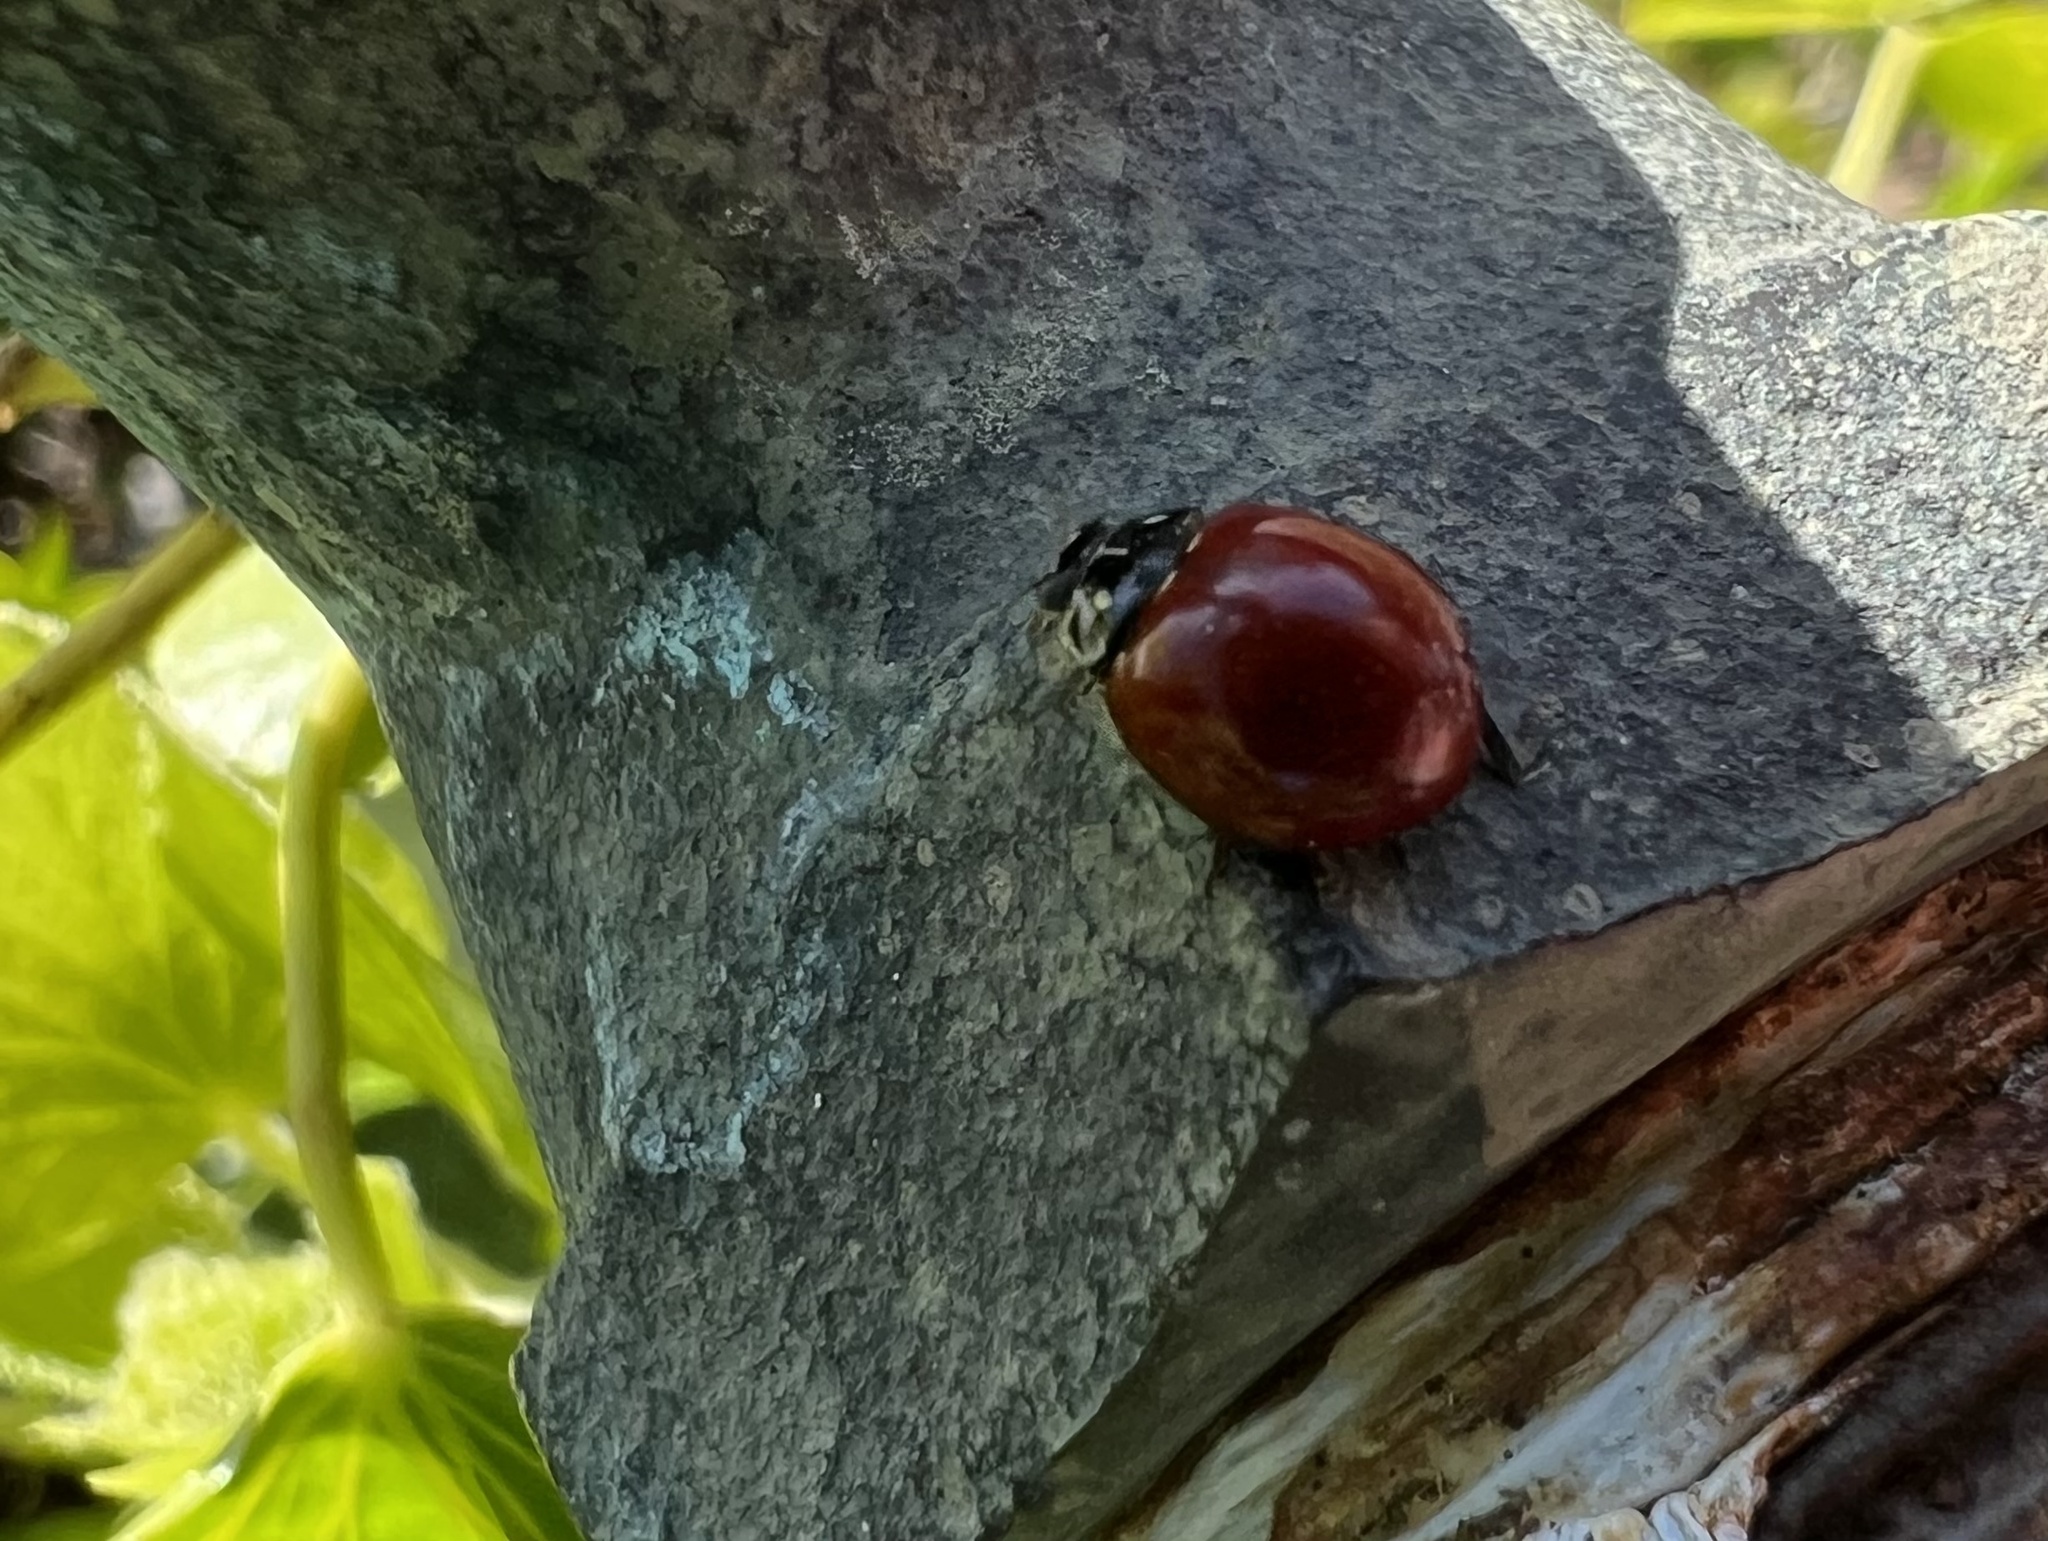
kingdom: Animalia
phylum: Arthropoda
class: Insecta
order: Coleoptera
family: Coccinellidae
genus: Cycloneda
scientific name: Cycloneda sanguinea
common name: Ladybird beetle
